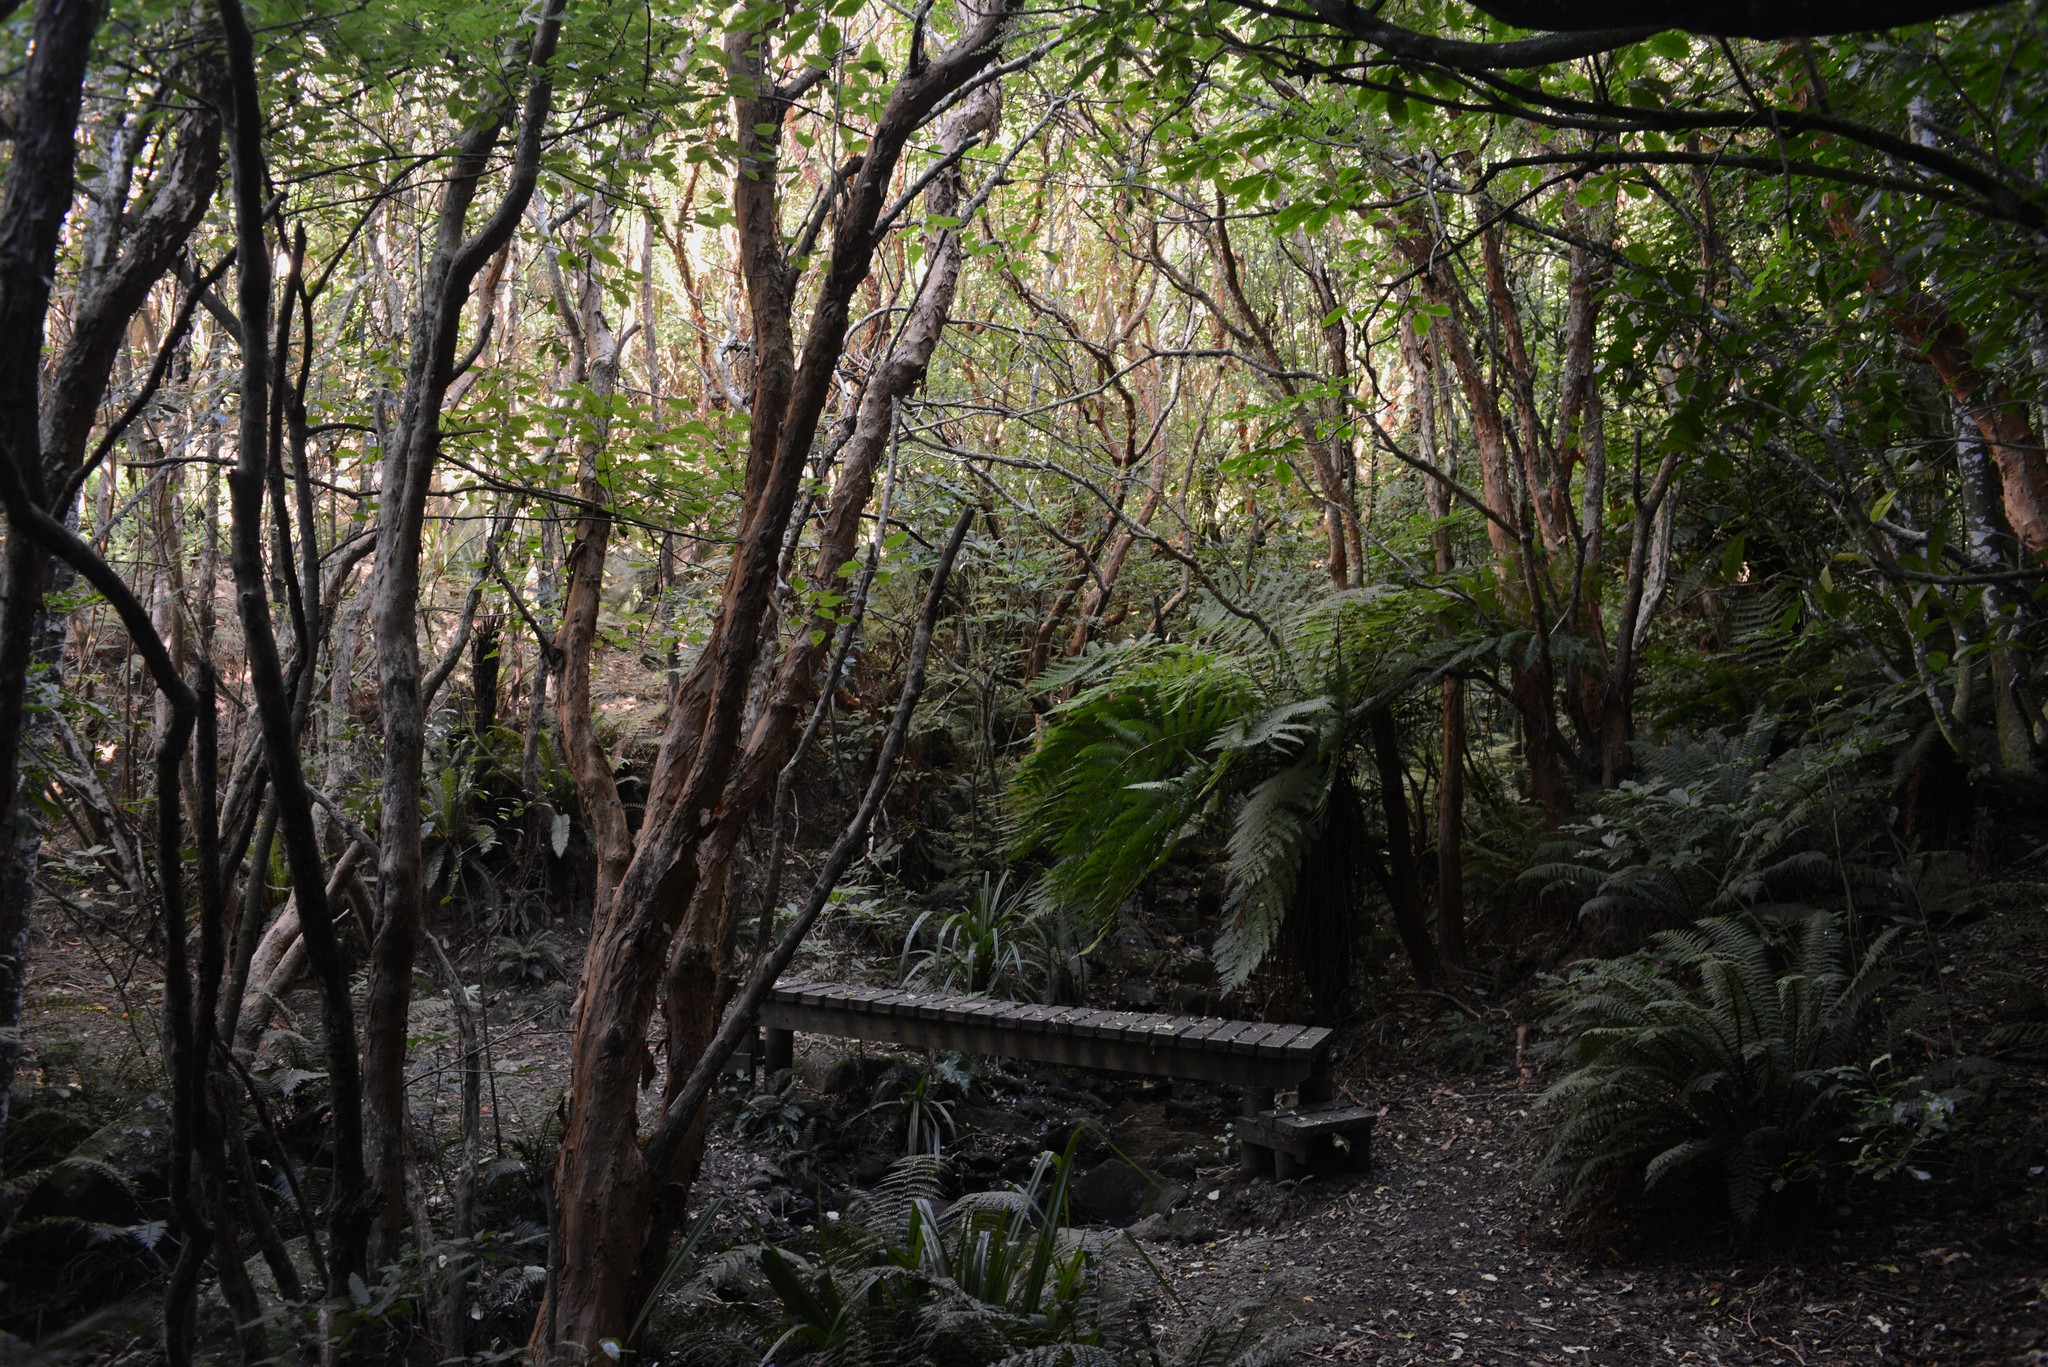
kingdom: Plantae
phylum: Tracheophyta
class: Magnoliopsida
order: Myrtales
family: Onagraceae
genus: Fuchsia
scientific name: Fuchsia excorticata
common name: Tree fuchsia
